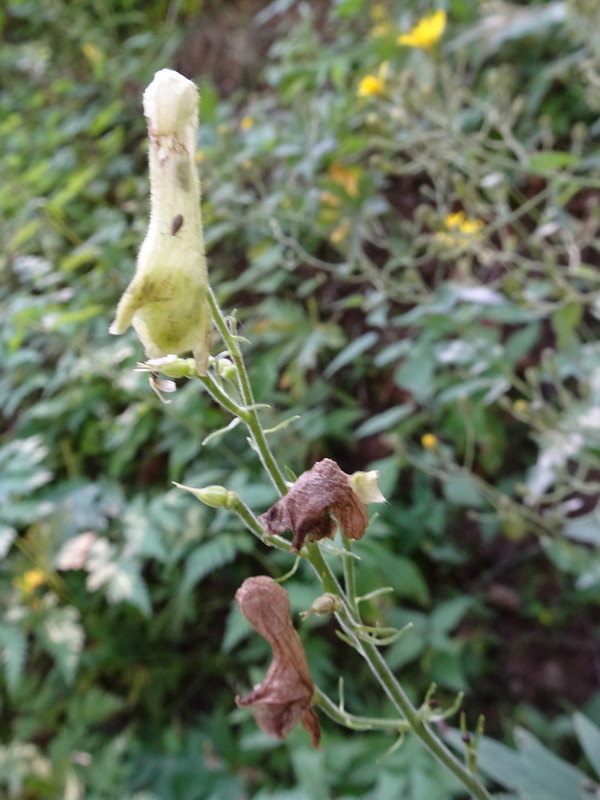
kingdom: Plantae
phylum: Tracheophyta
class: Magnoliopsida
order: Ranunculales
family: Ranunculaceae
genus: Aconitum
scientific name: Aconitum lycoctonum
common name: Wolf's-bane
